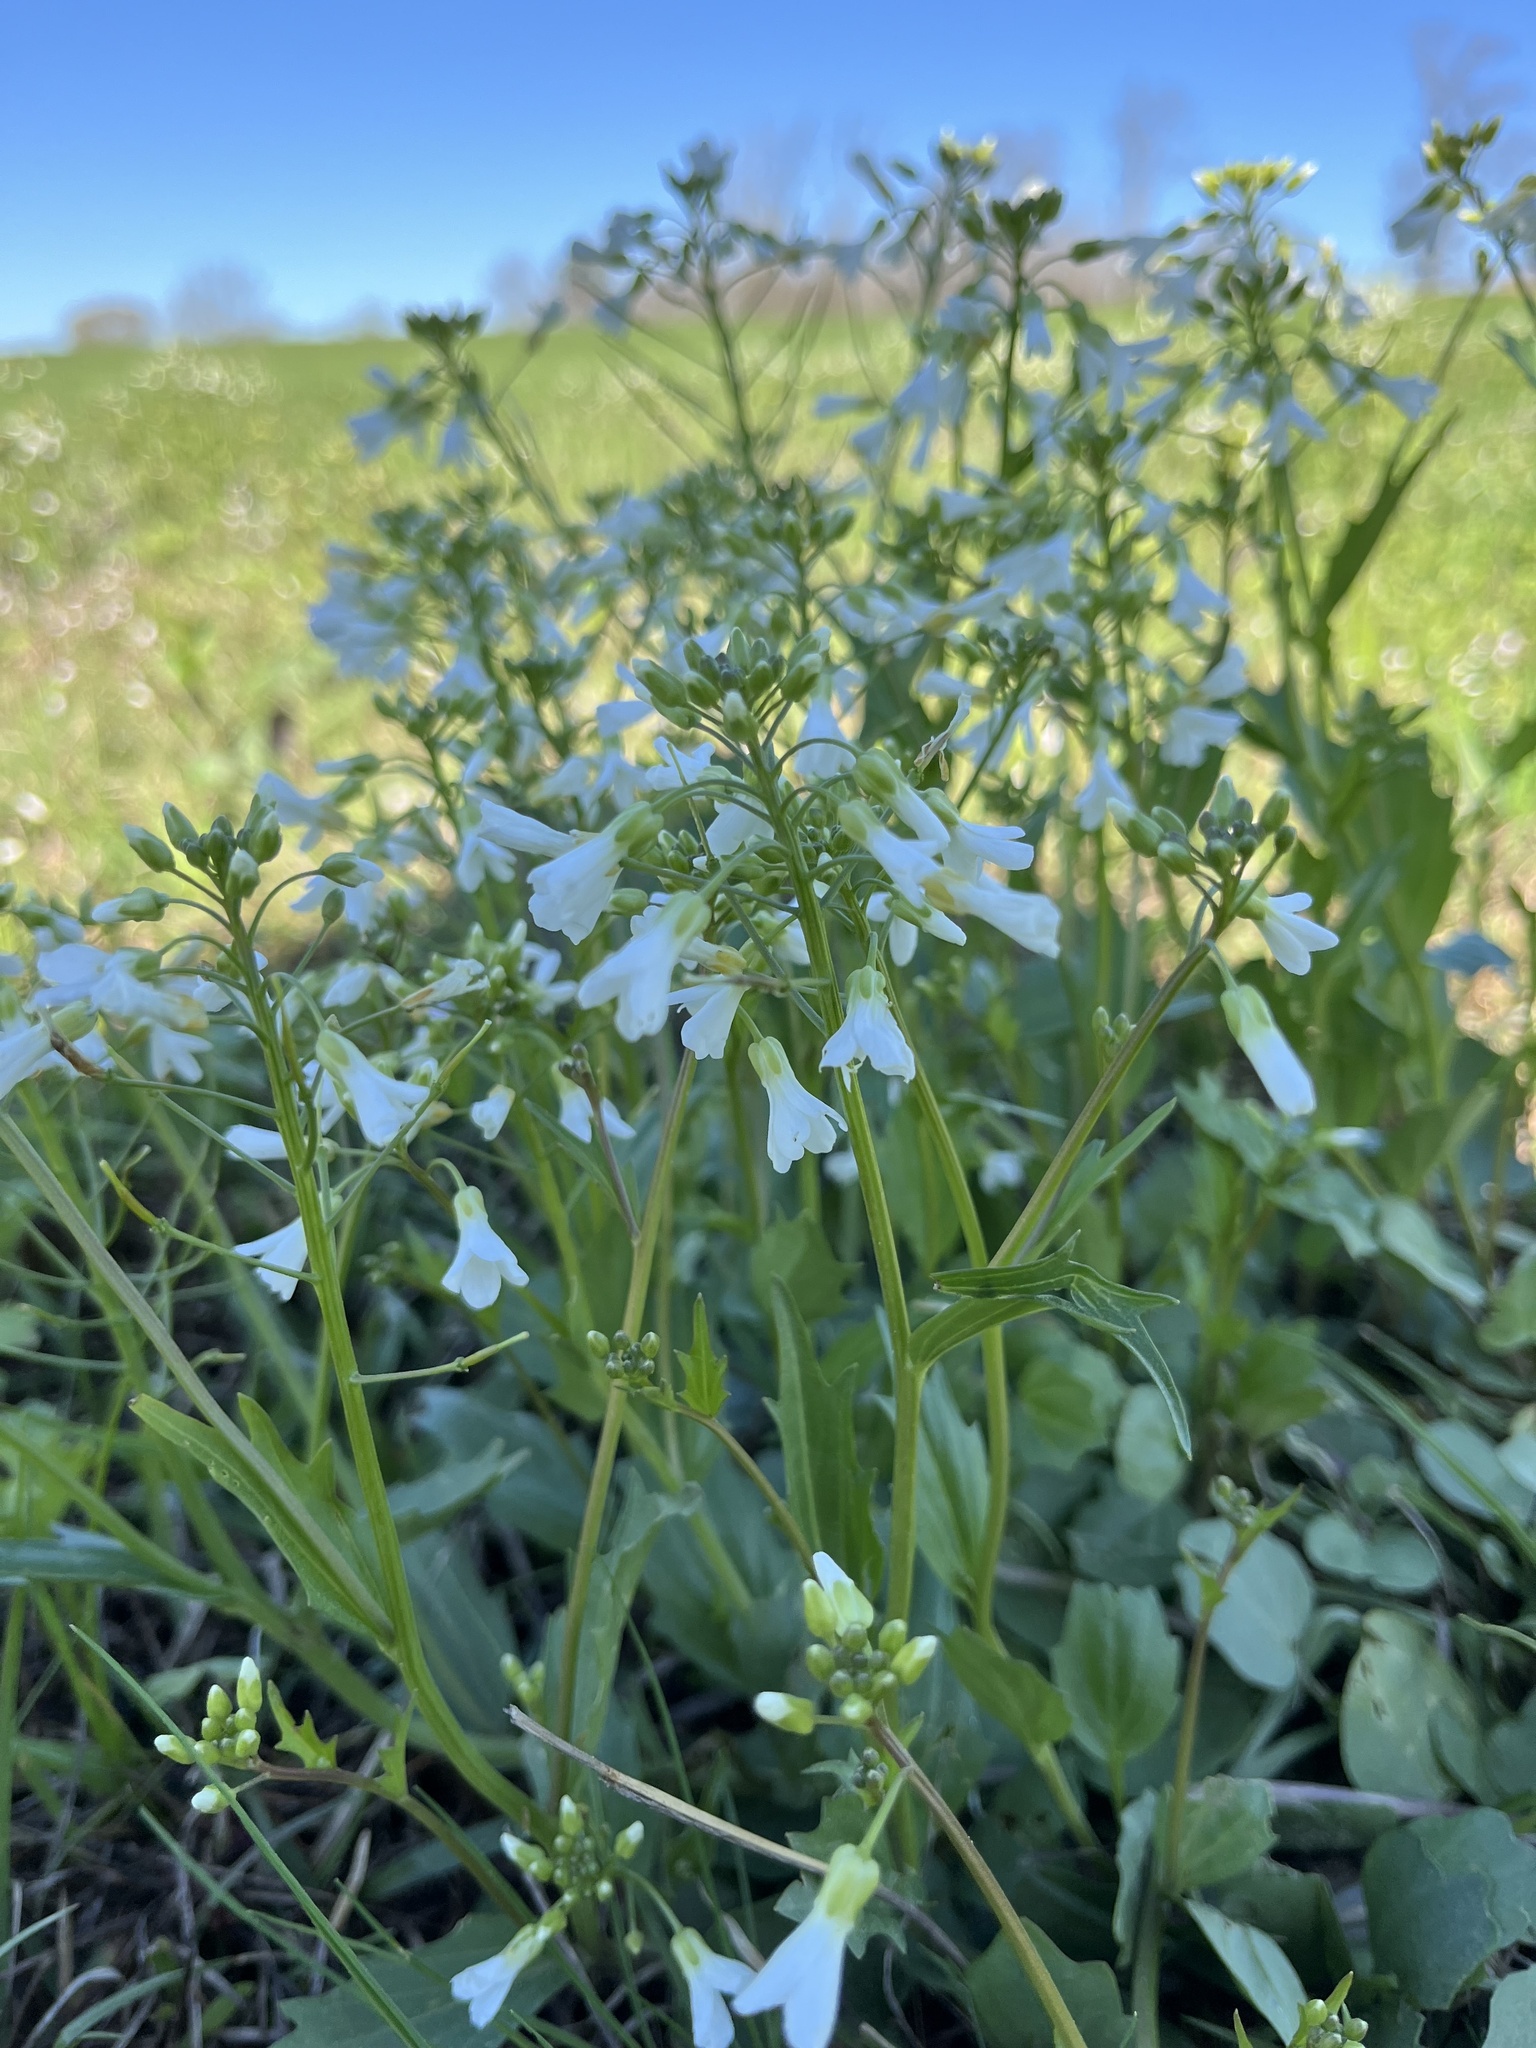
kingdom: Plantae
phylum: Tracheophyta
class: Magnoliopsida
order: Brassicales
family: Brassicaceae
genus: Cardamine
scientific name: Cardamine bulbosa
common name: Spring cress
